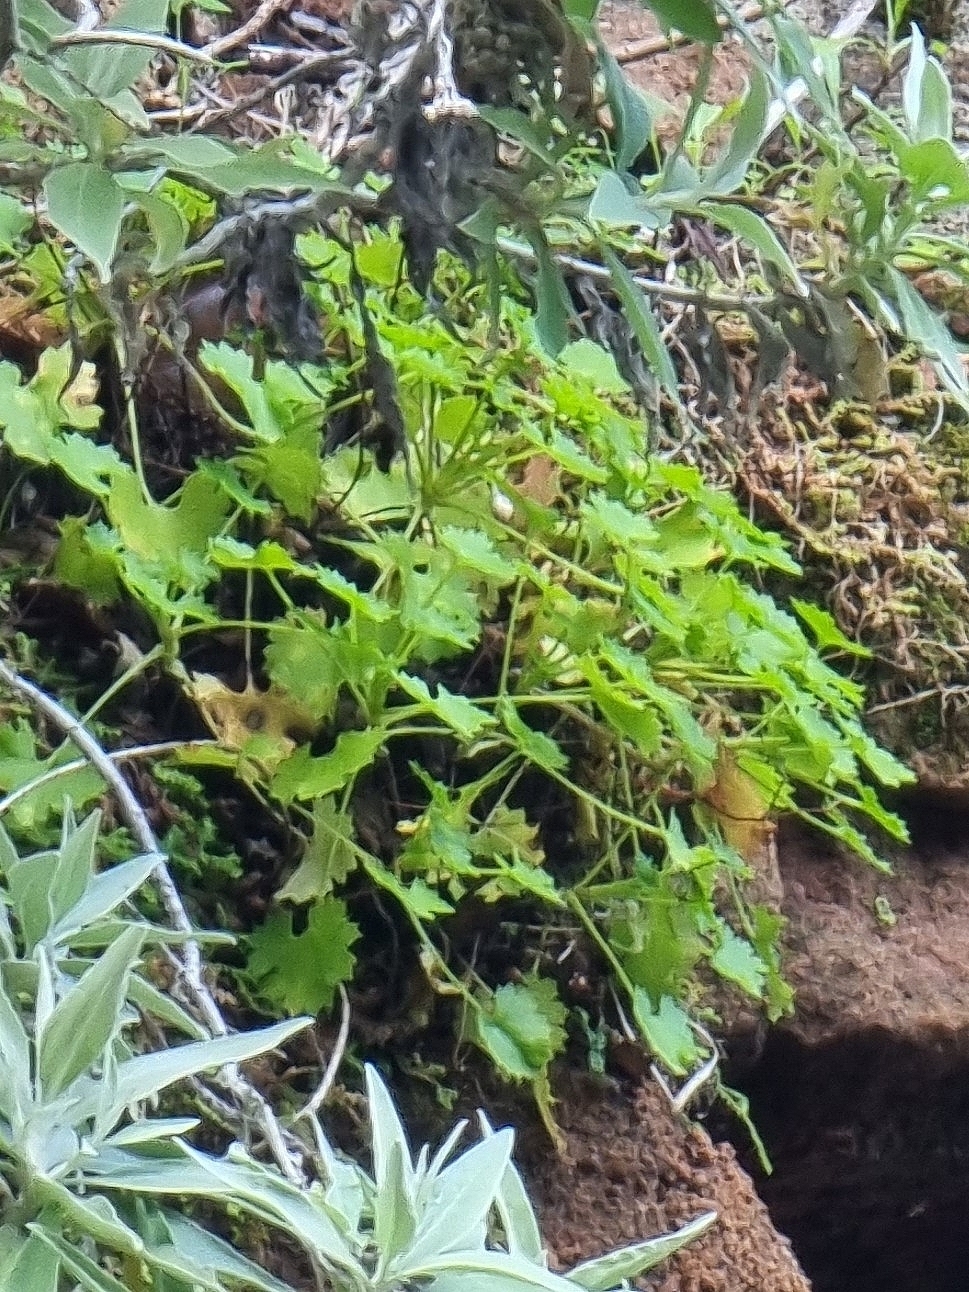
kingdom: Plantae
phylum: Tracheophyta
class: Magnoliopsida
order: Saxifragales
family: Saxifragaceae
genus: Saxifraga
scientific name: Saxifraga maderensis
